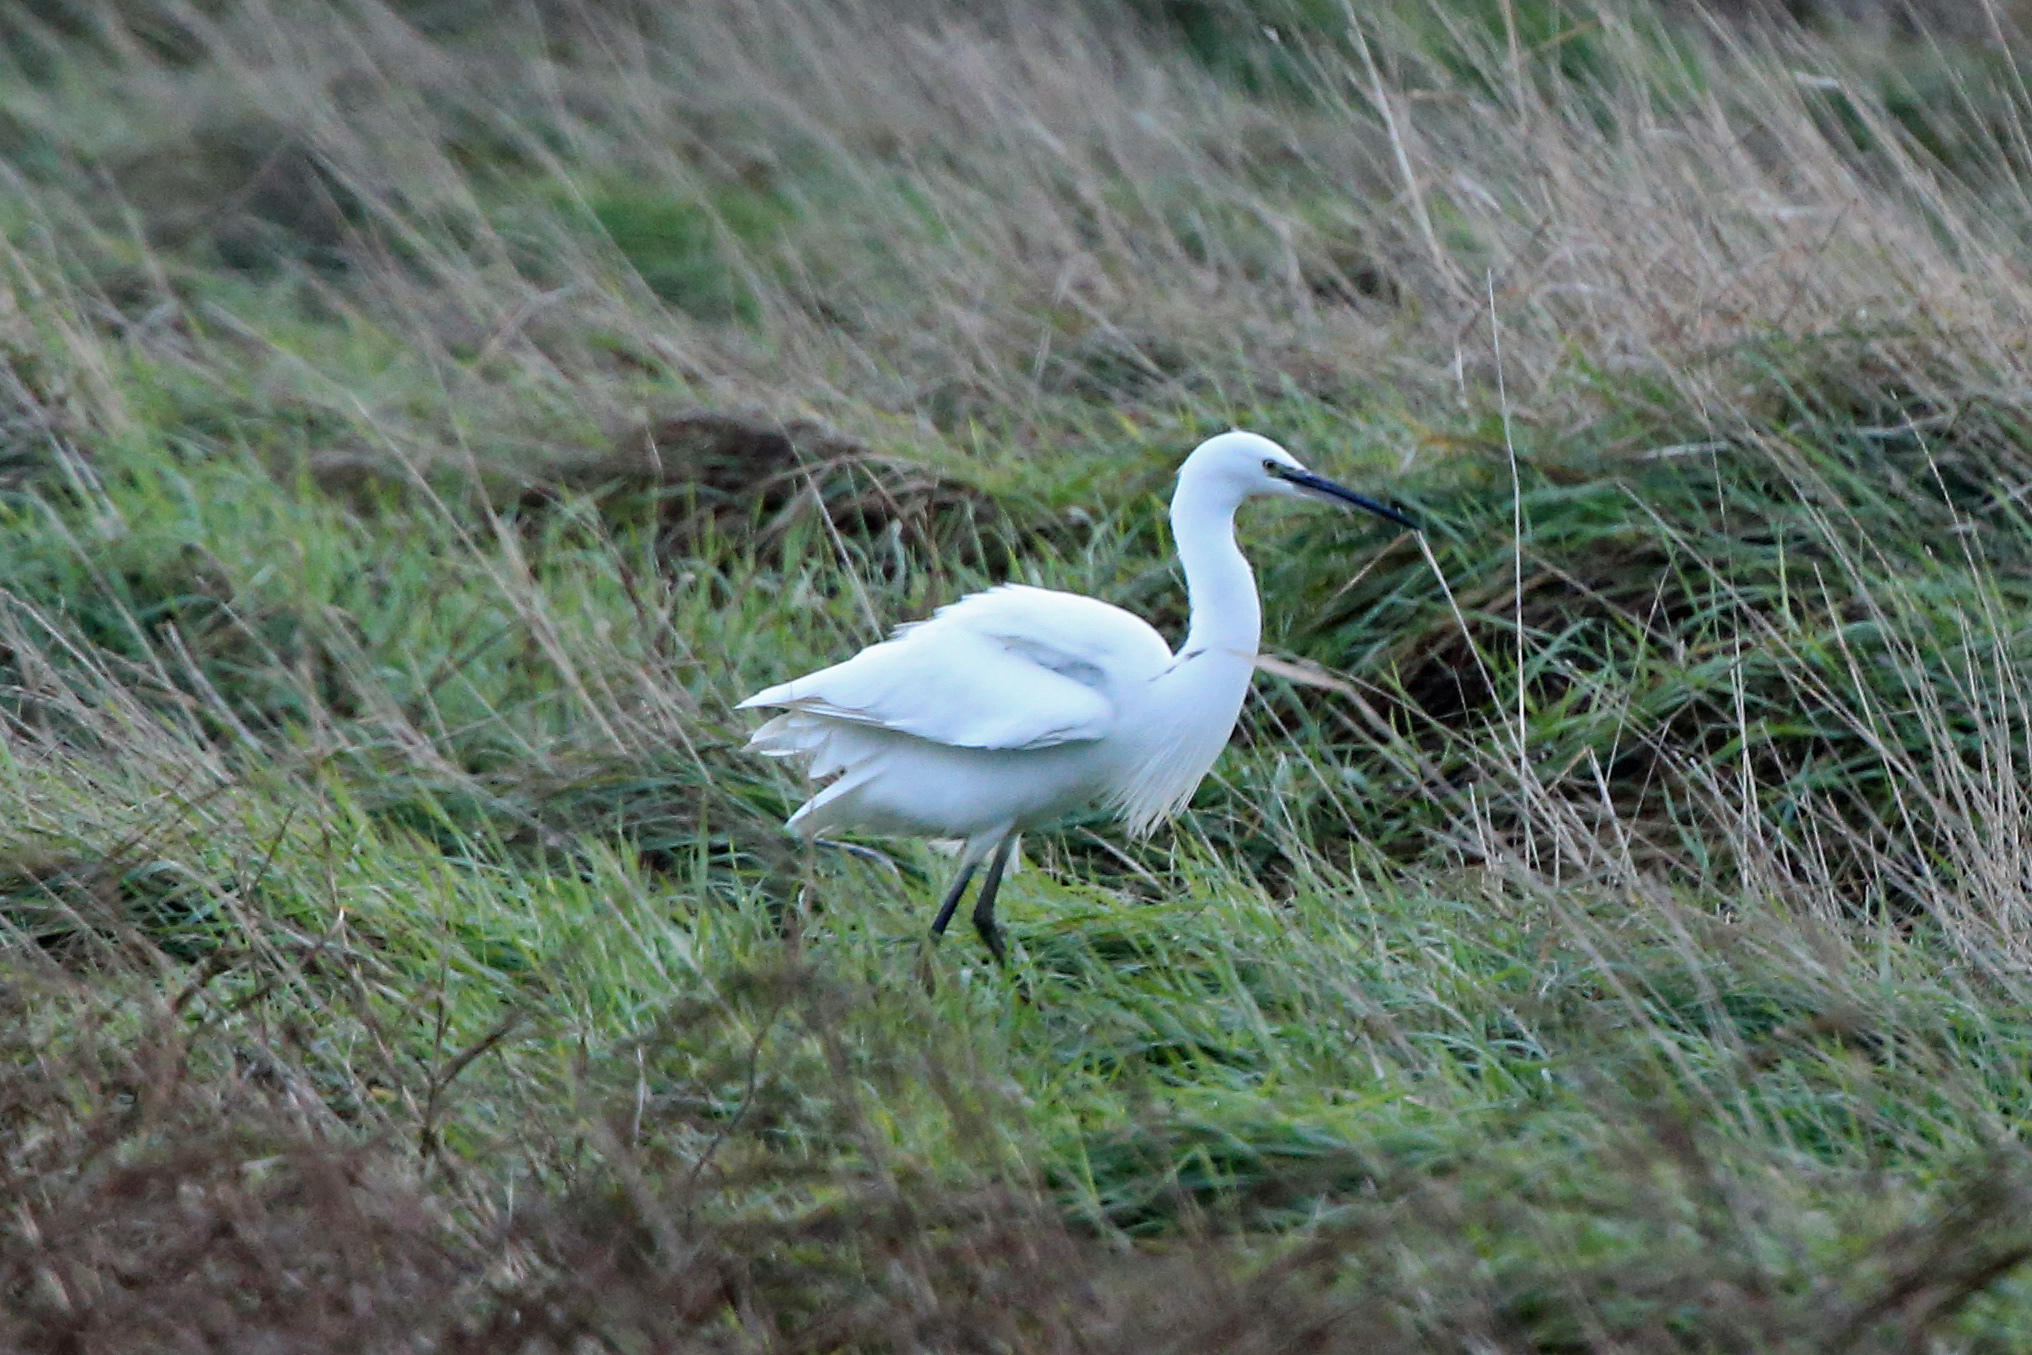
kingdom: Animalia
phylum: Chordata
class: Aves
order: Pelecaniformes
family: Ardeidae
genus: Egretta
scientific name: Egretta garzetta
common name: Little egret
